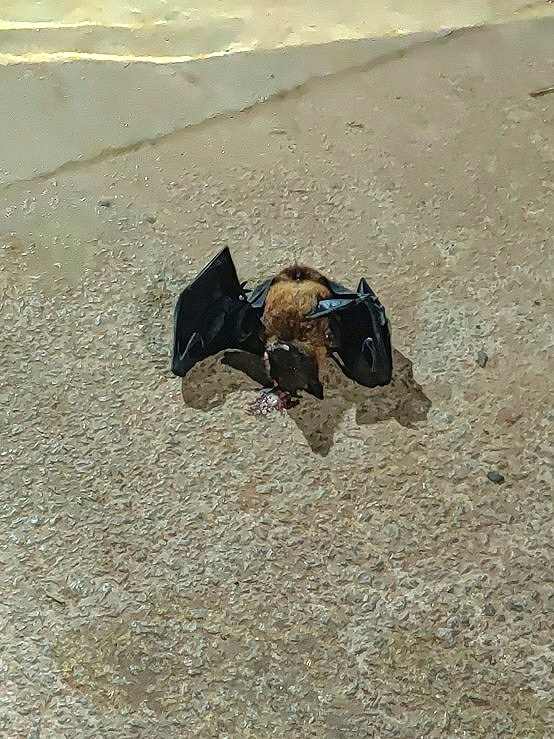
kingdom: Animalia
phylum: Chordata
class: Mammalia
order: Chiroptera
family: Pteropodidae
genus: Pteropus
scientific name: Pteropus vampyrus
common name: Large flying fox
